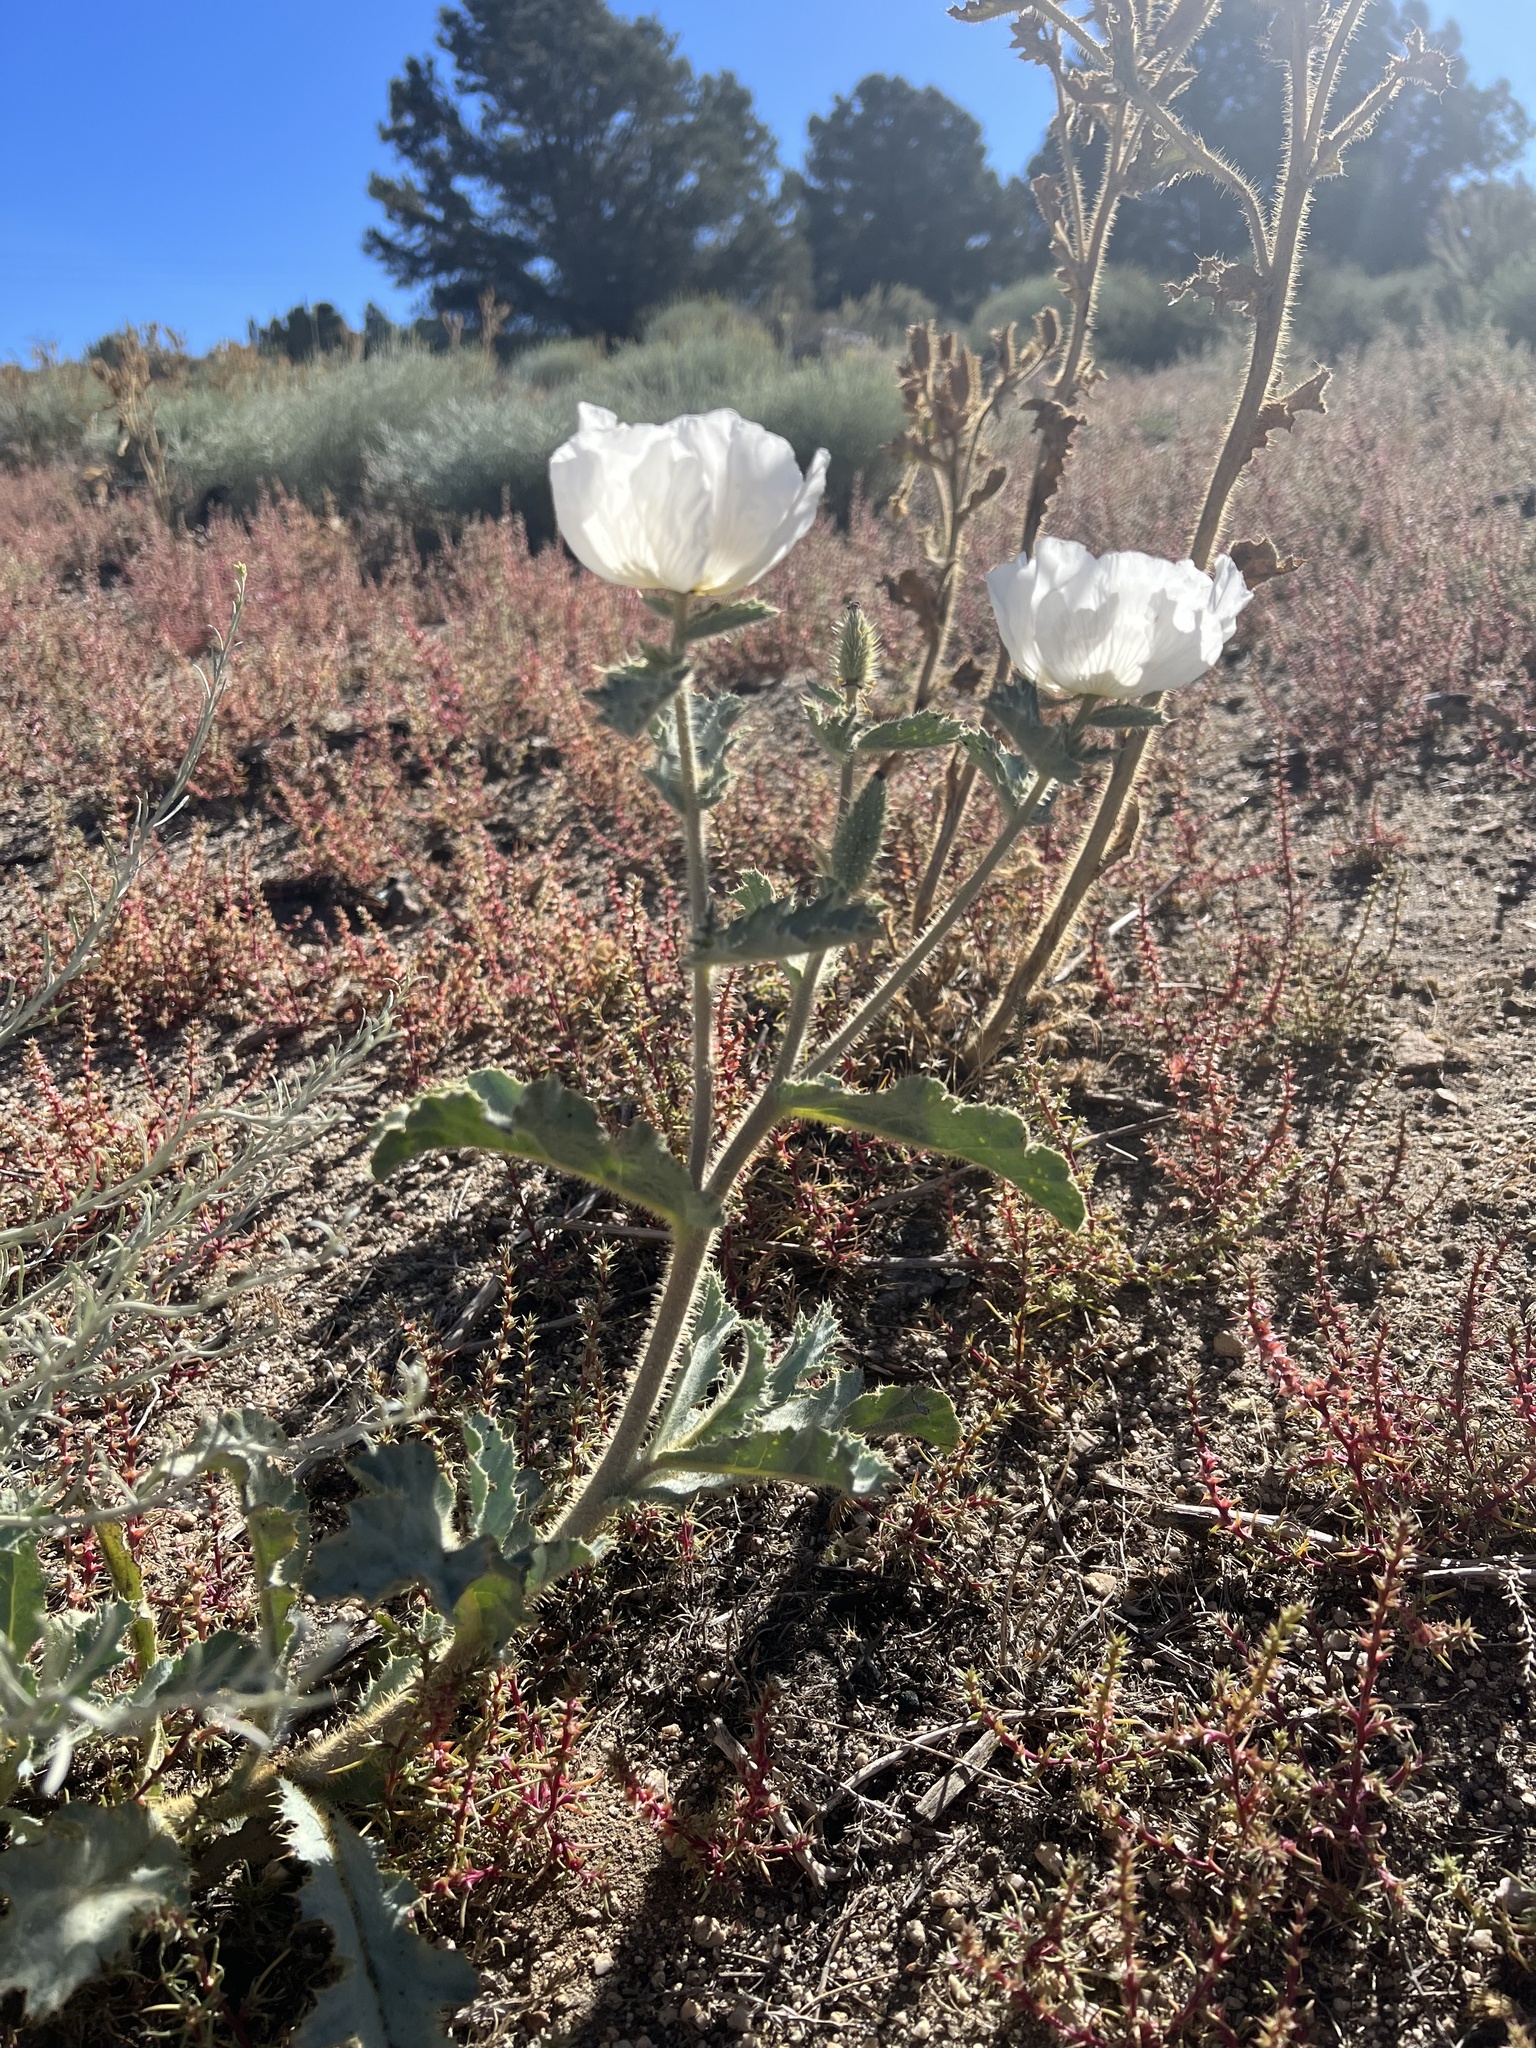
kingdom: Plantae
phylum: Tracheophyta
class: Magnoliopsida
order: Ranunculales
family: Papaveraceae
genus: Argemone
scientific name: Argemone munita
